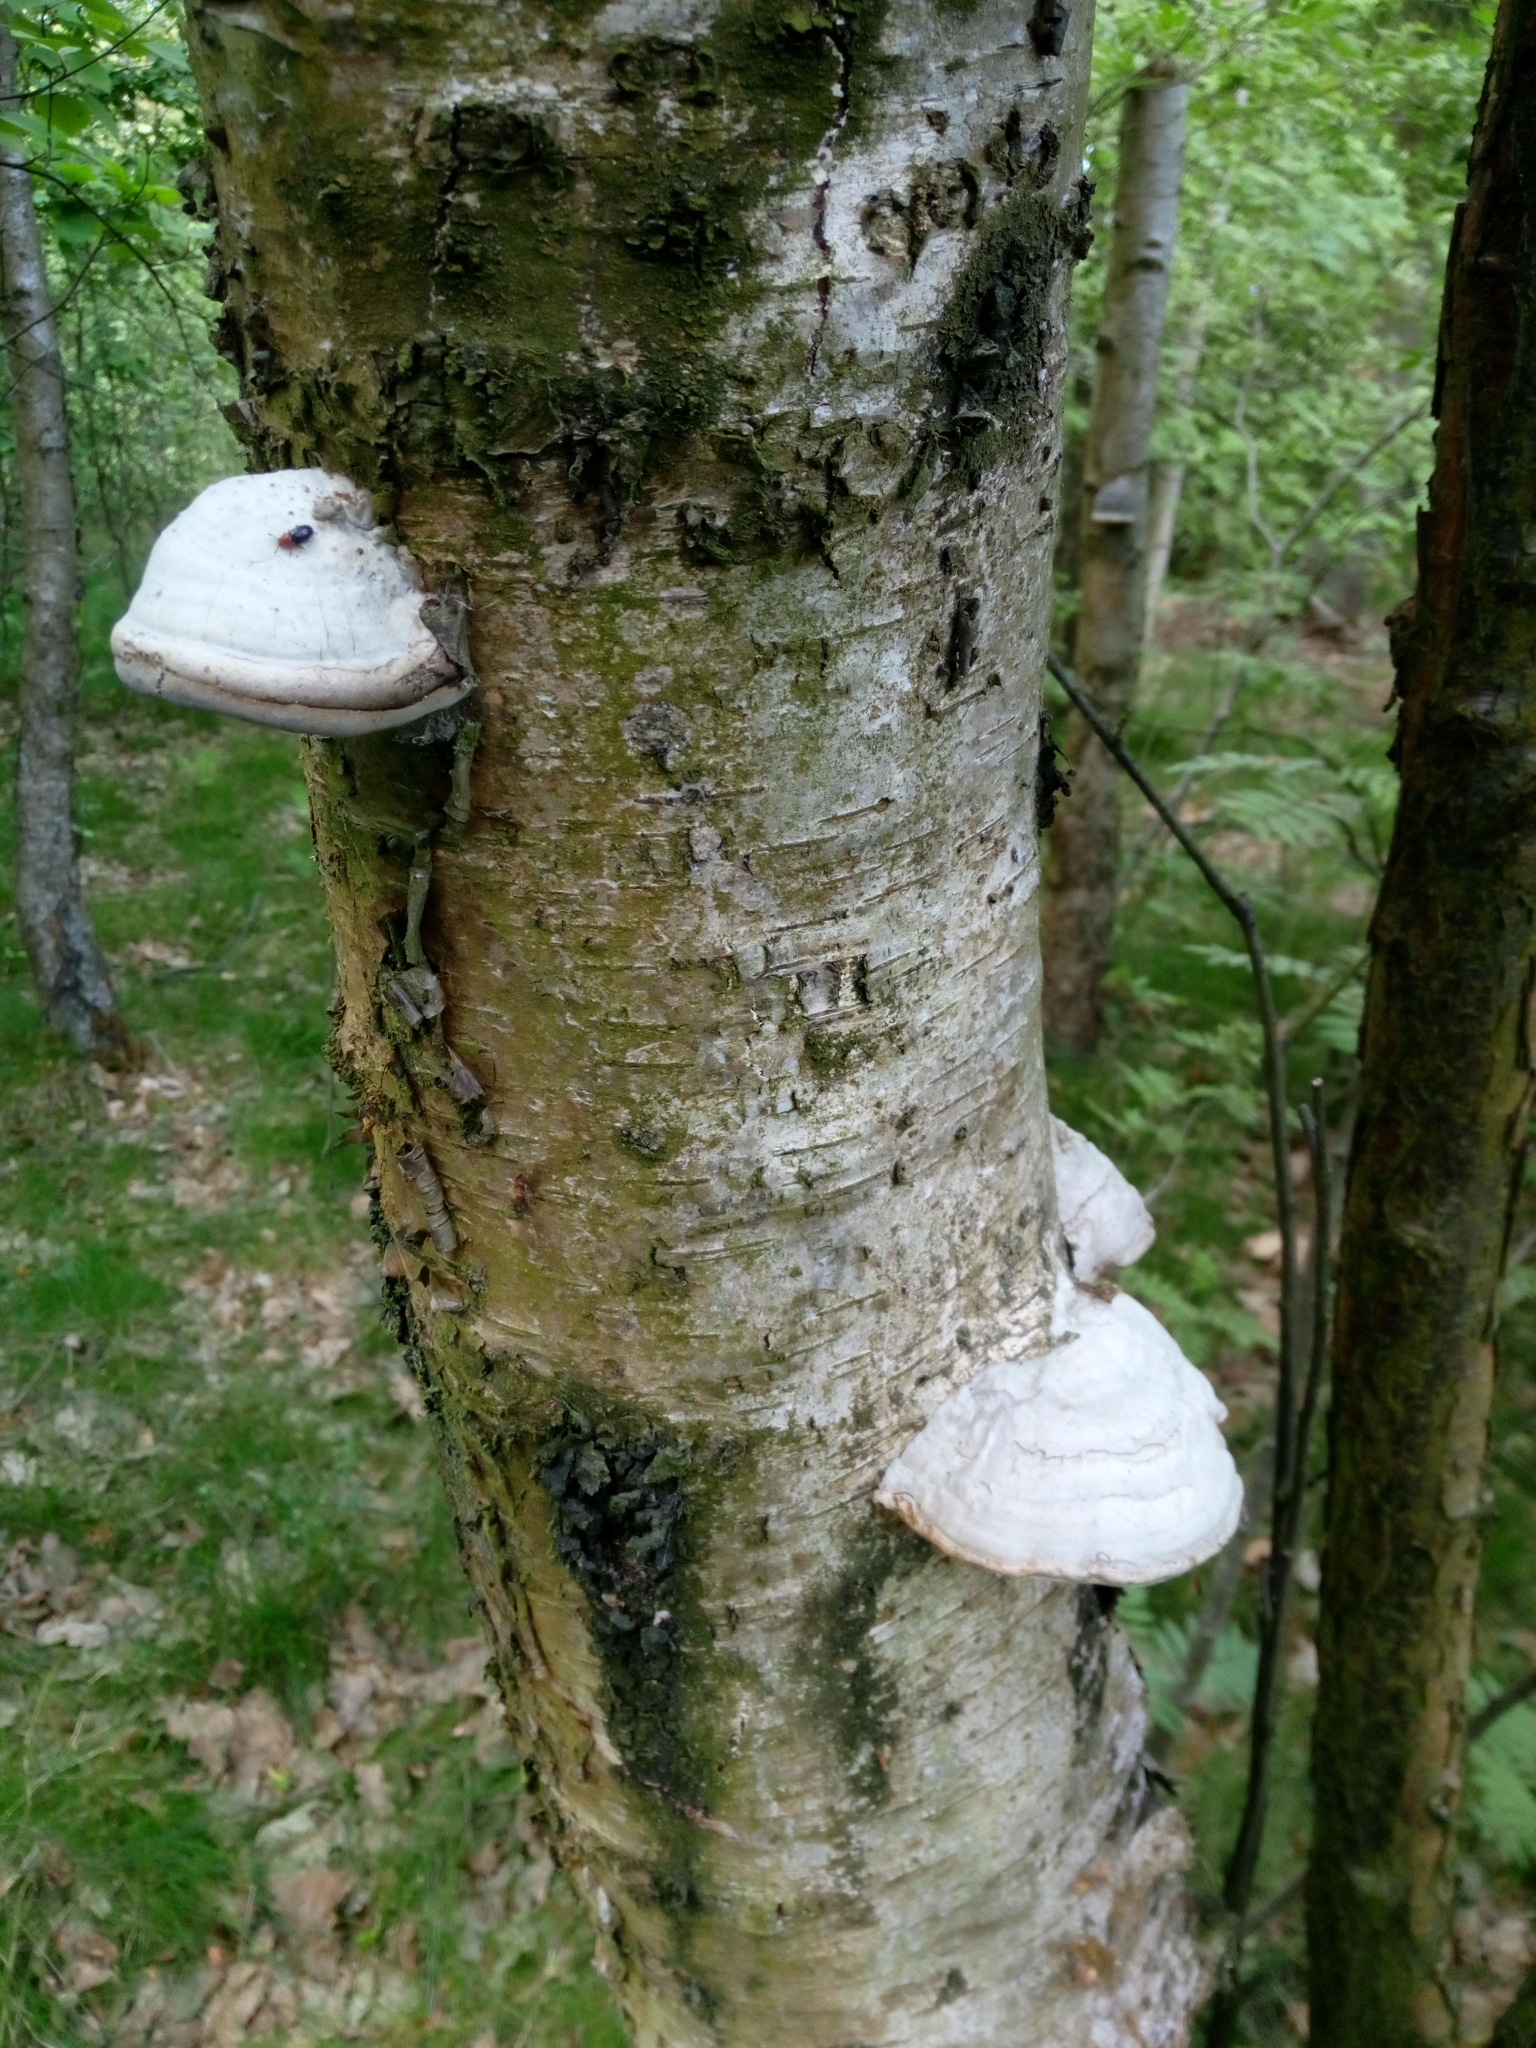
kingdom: Fungi
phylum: Basidiomycota
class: Agaricomycetes
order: Polyporales
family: Polyporaceae
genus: Fomes
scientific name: Fomes fomentarius
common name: Hoof fungus
